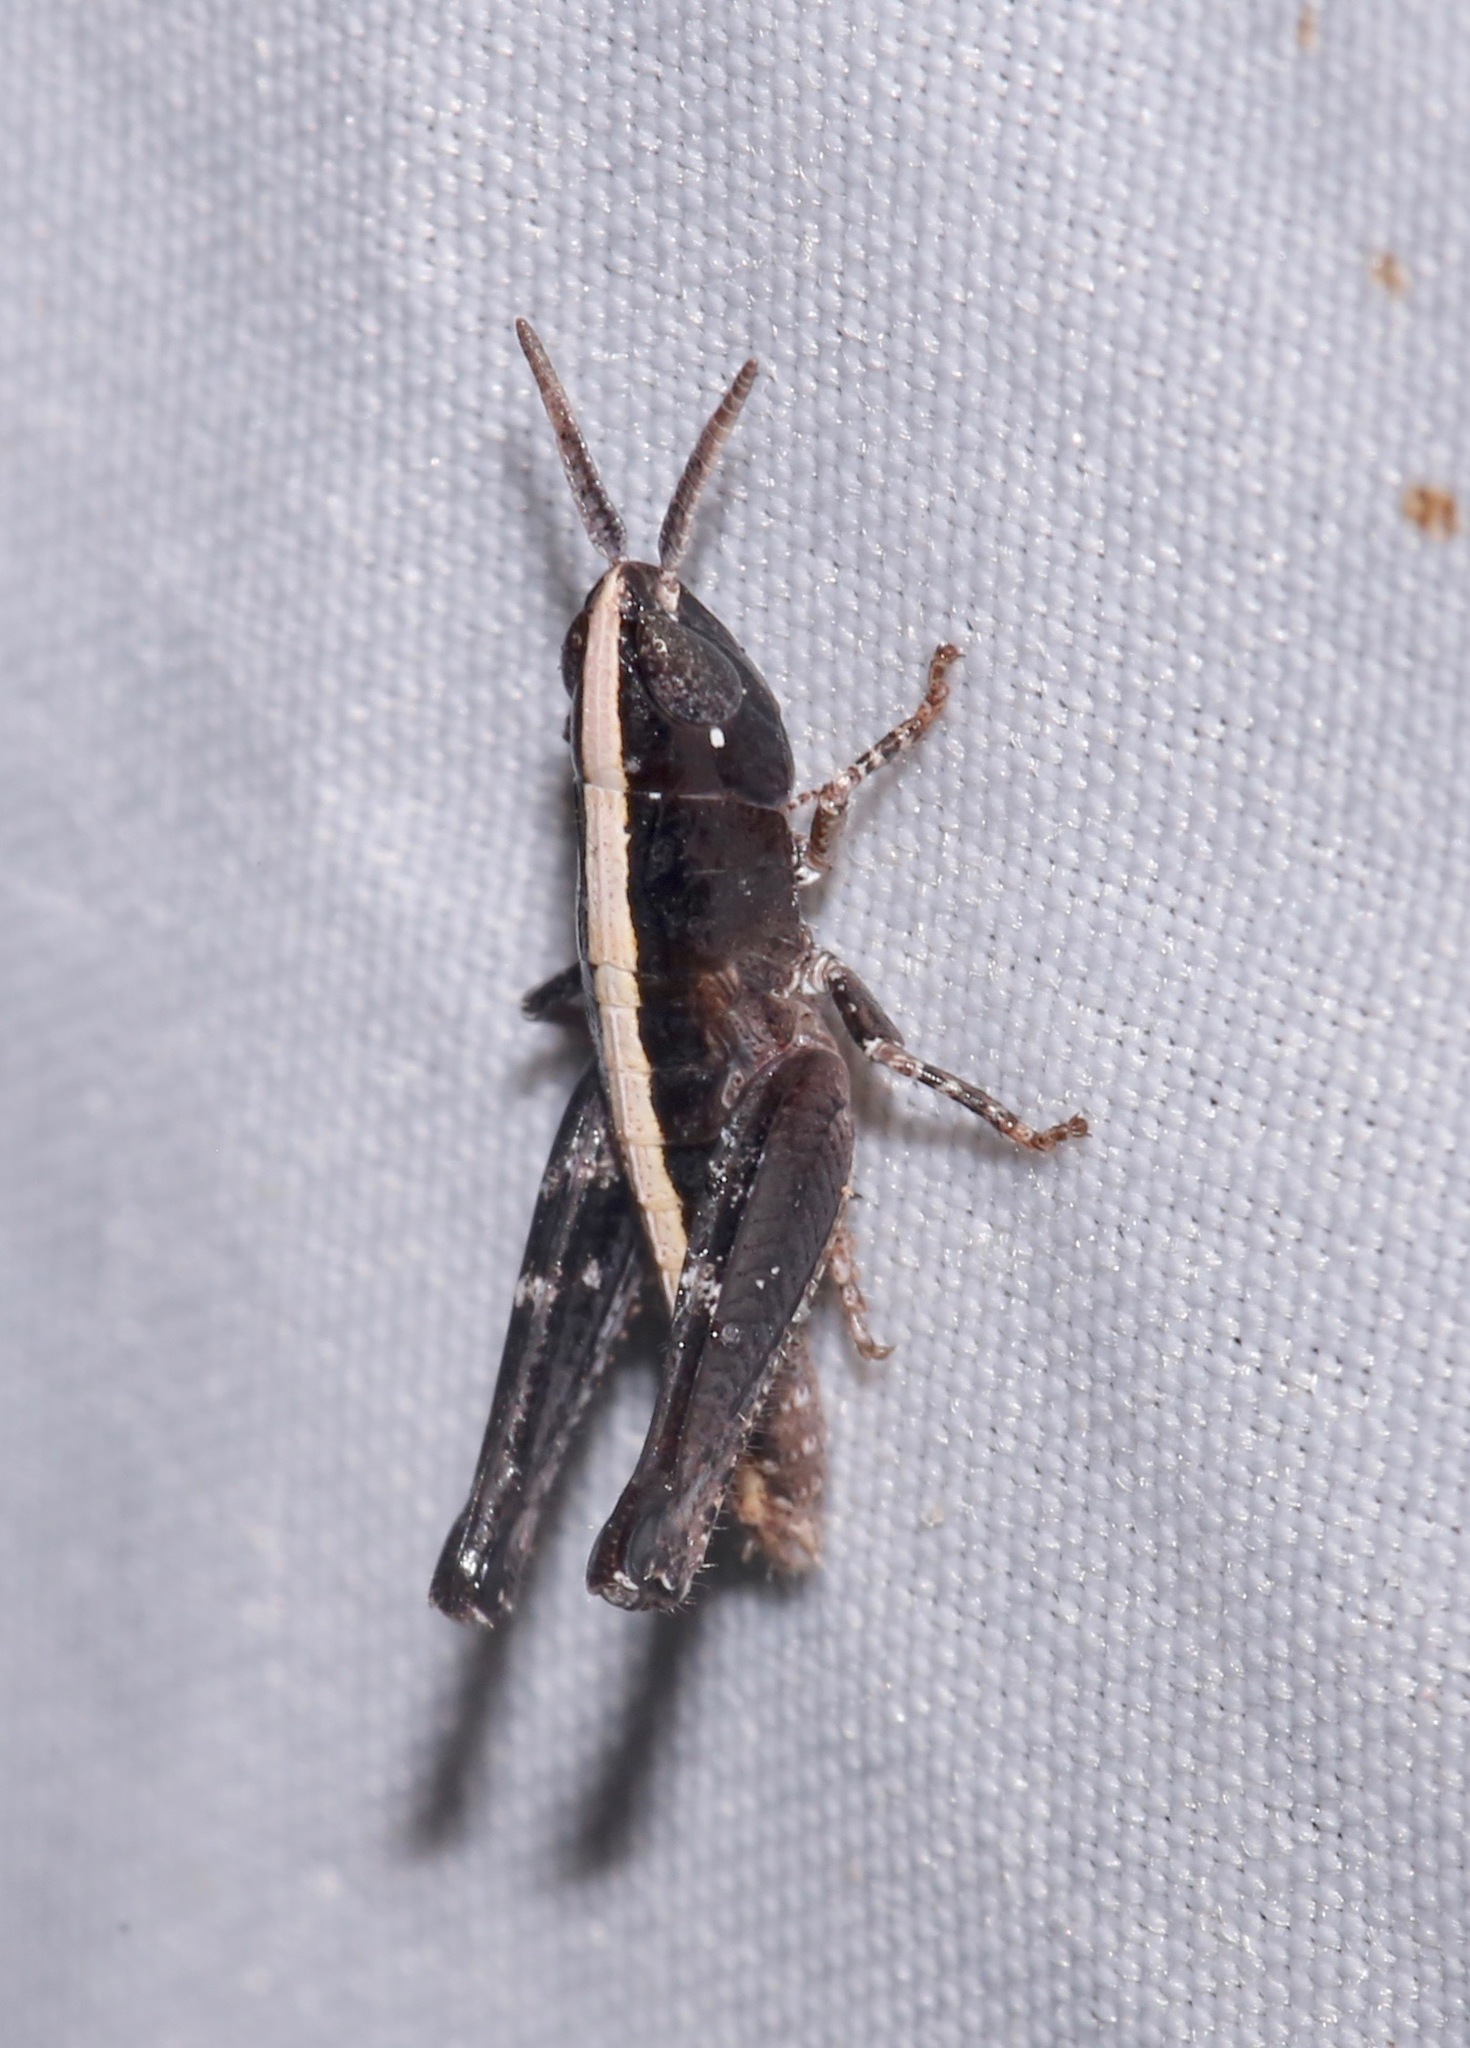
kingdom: Animalia
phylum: Arthropoda
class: Insecta
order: Orthoptera
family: Acrididae
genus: Eritettix
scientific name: Eritettix obscurus
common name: Obscure slant-faced grasshopper
